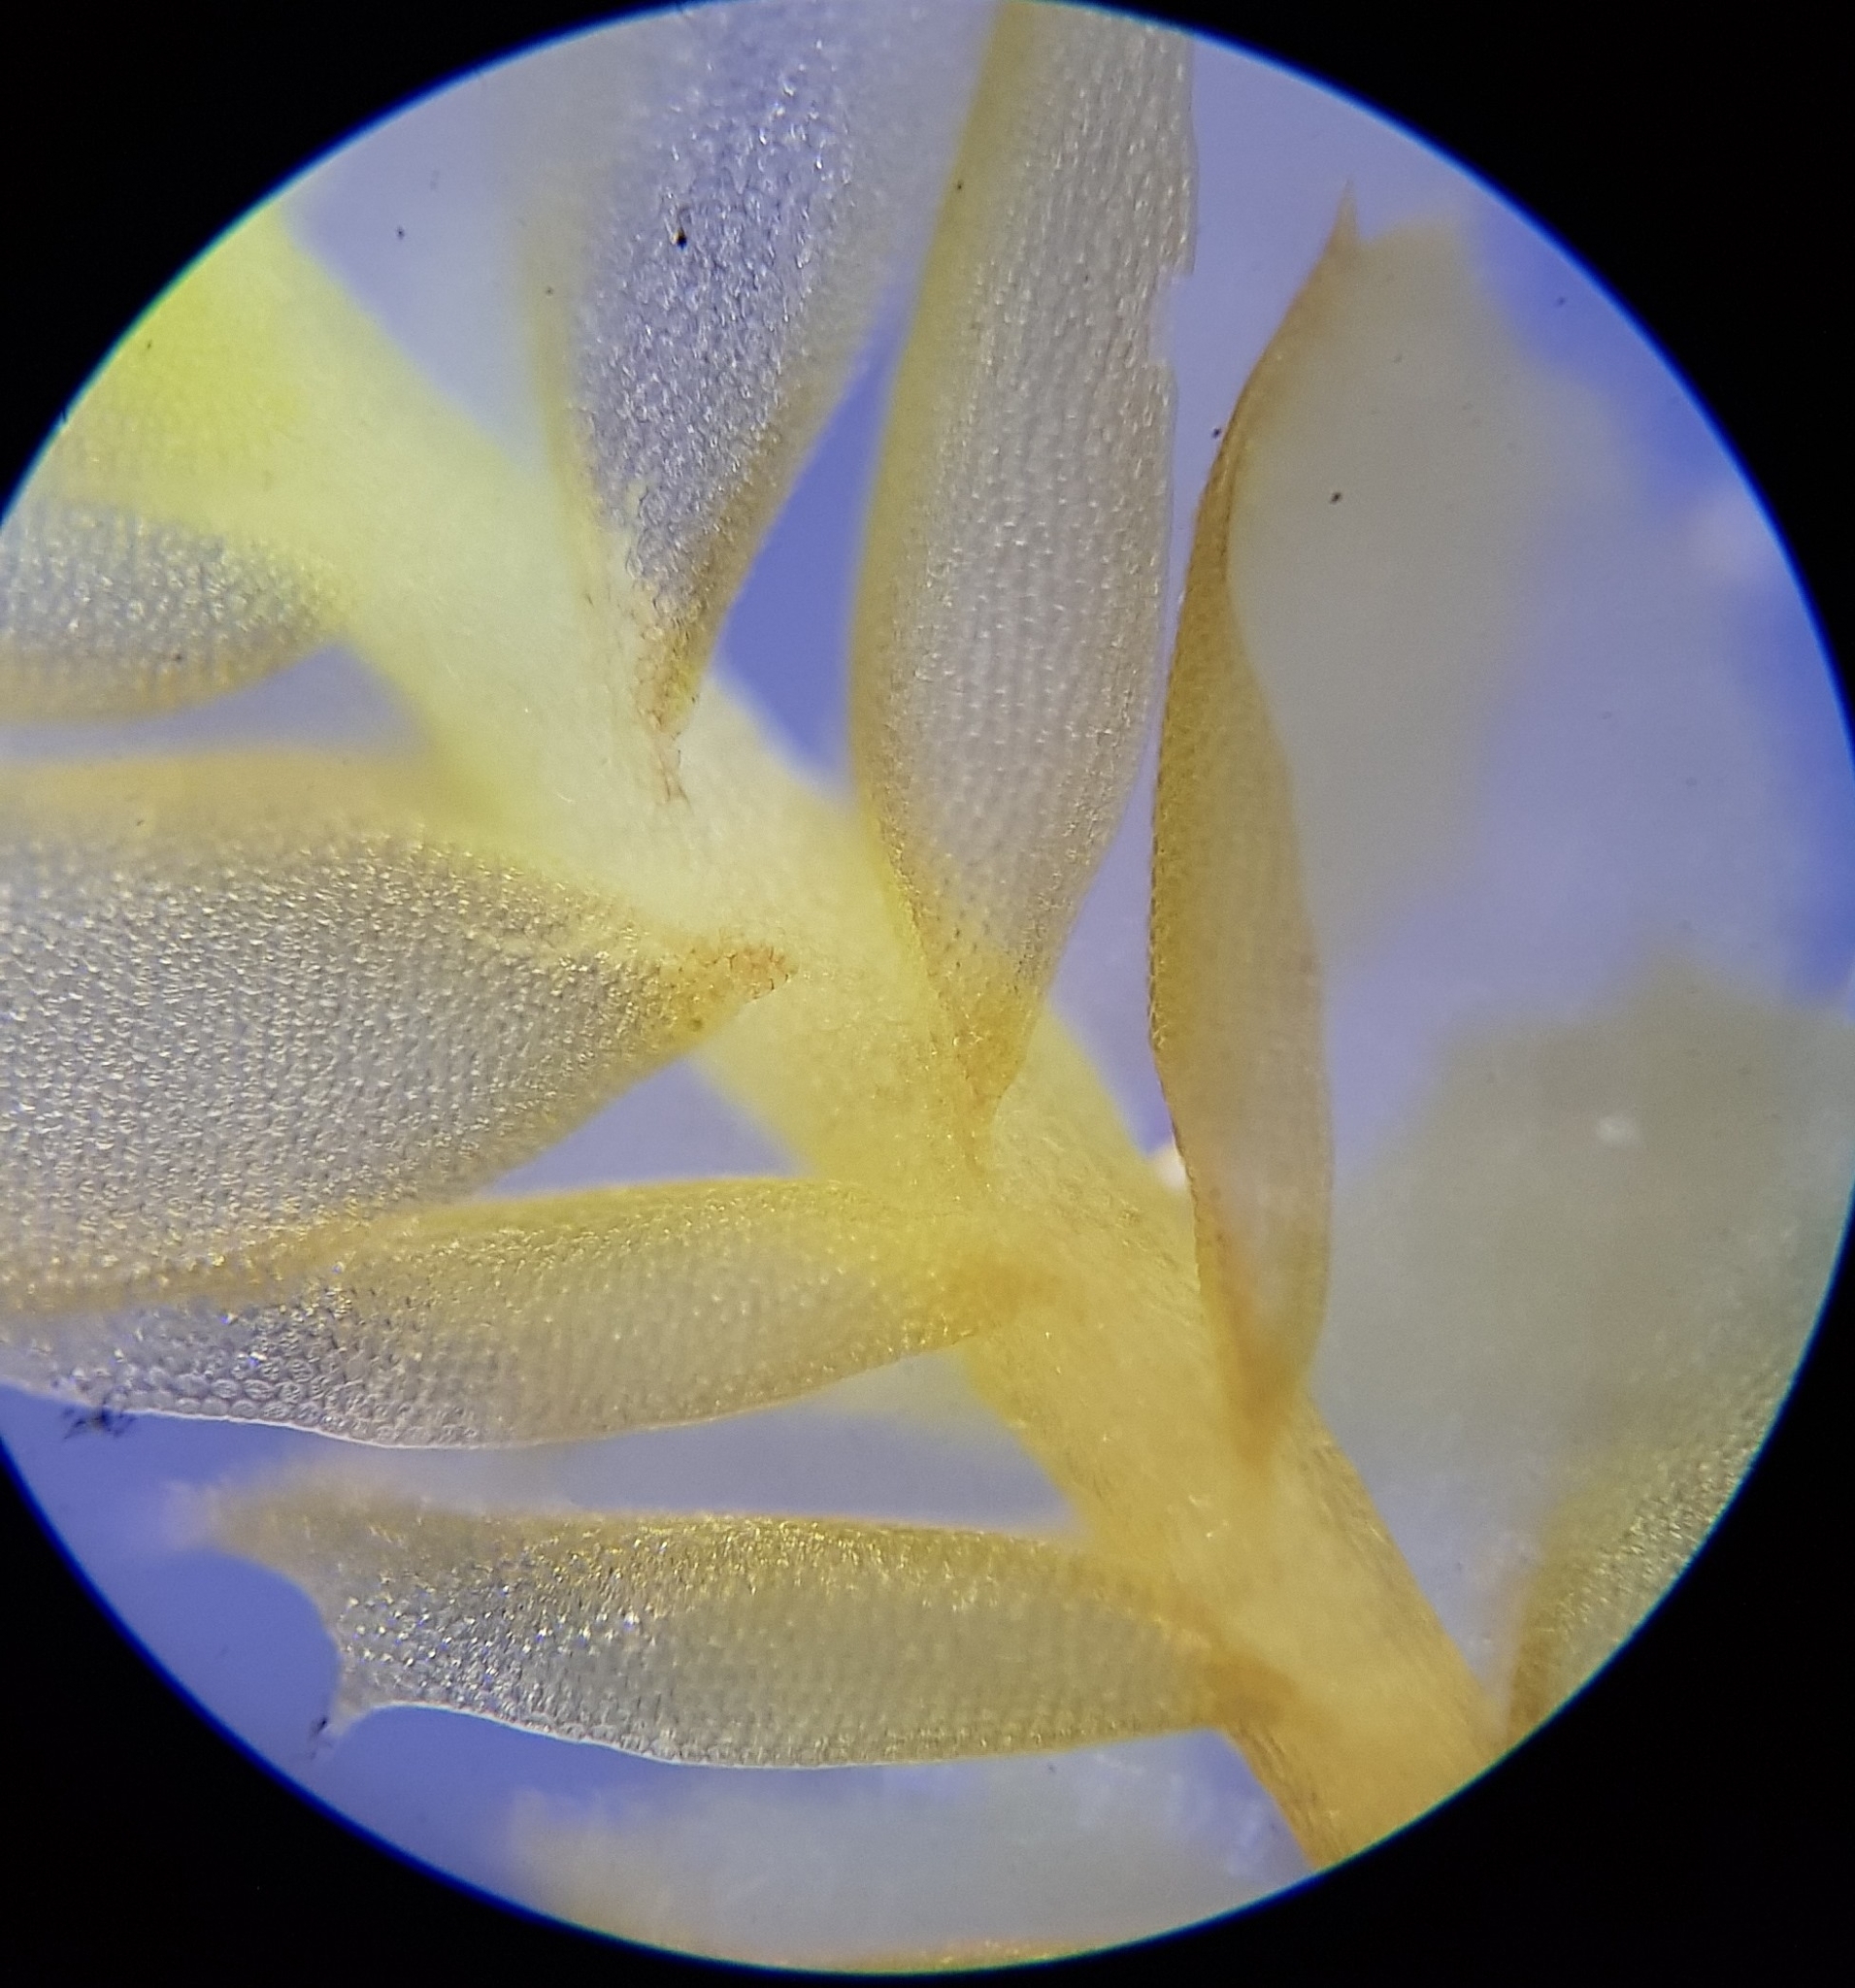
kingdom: Plantae
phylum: Marchantiophyta
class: Jungermanniopsida
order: Jungermanniales
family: Plagiochilaceae
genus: Plagiochila
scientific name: Plagiochila punctata
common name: Spotty featherwort
